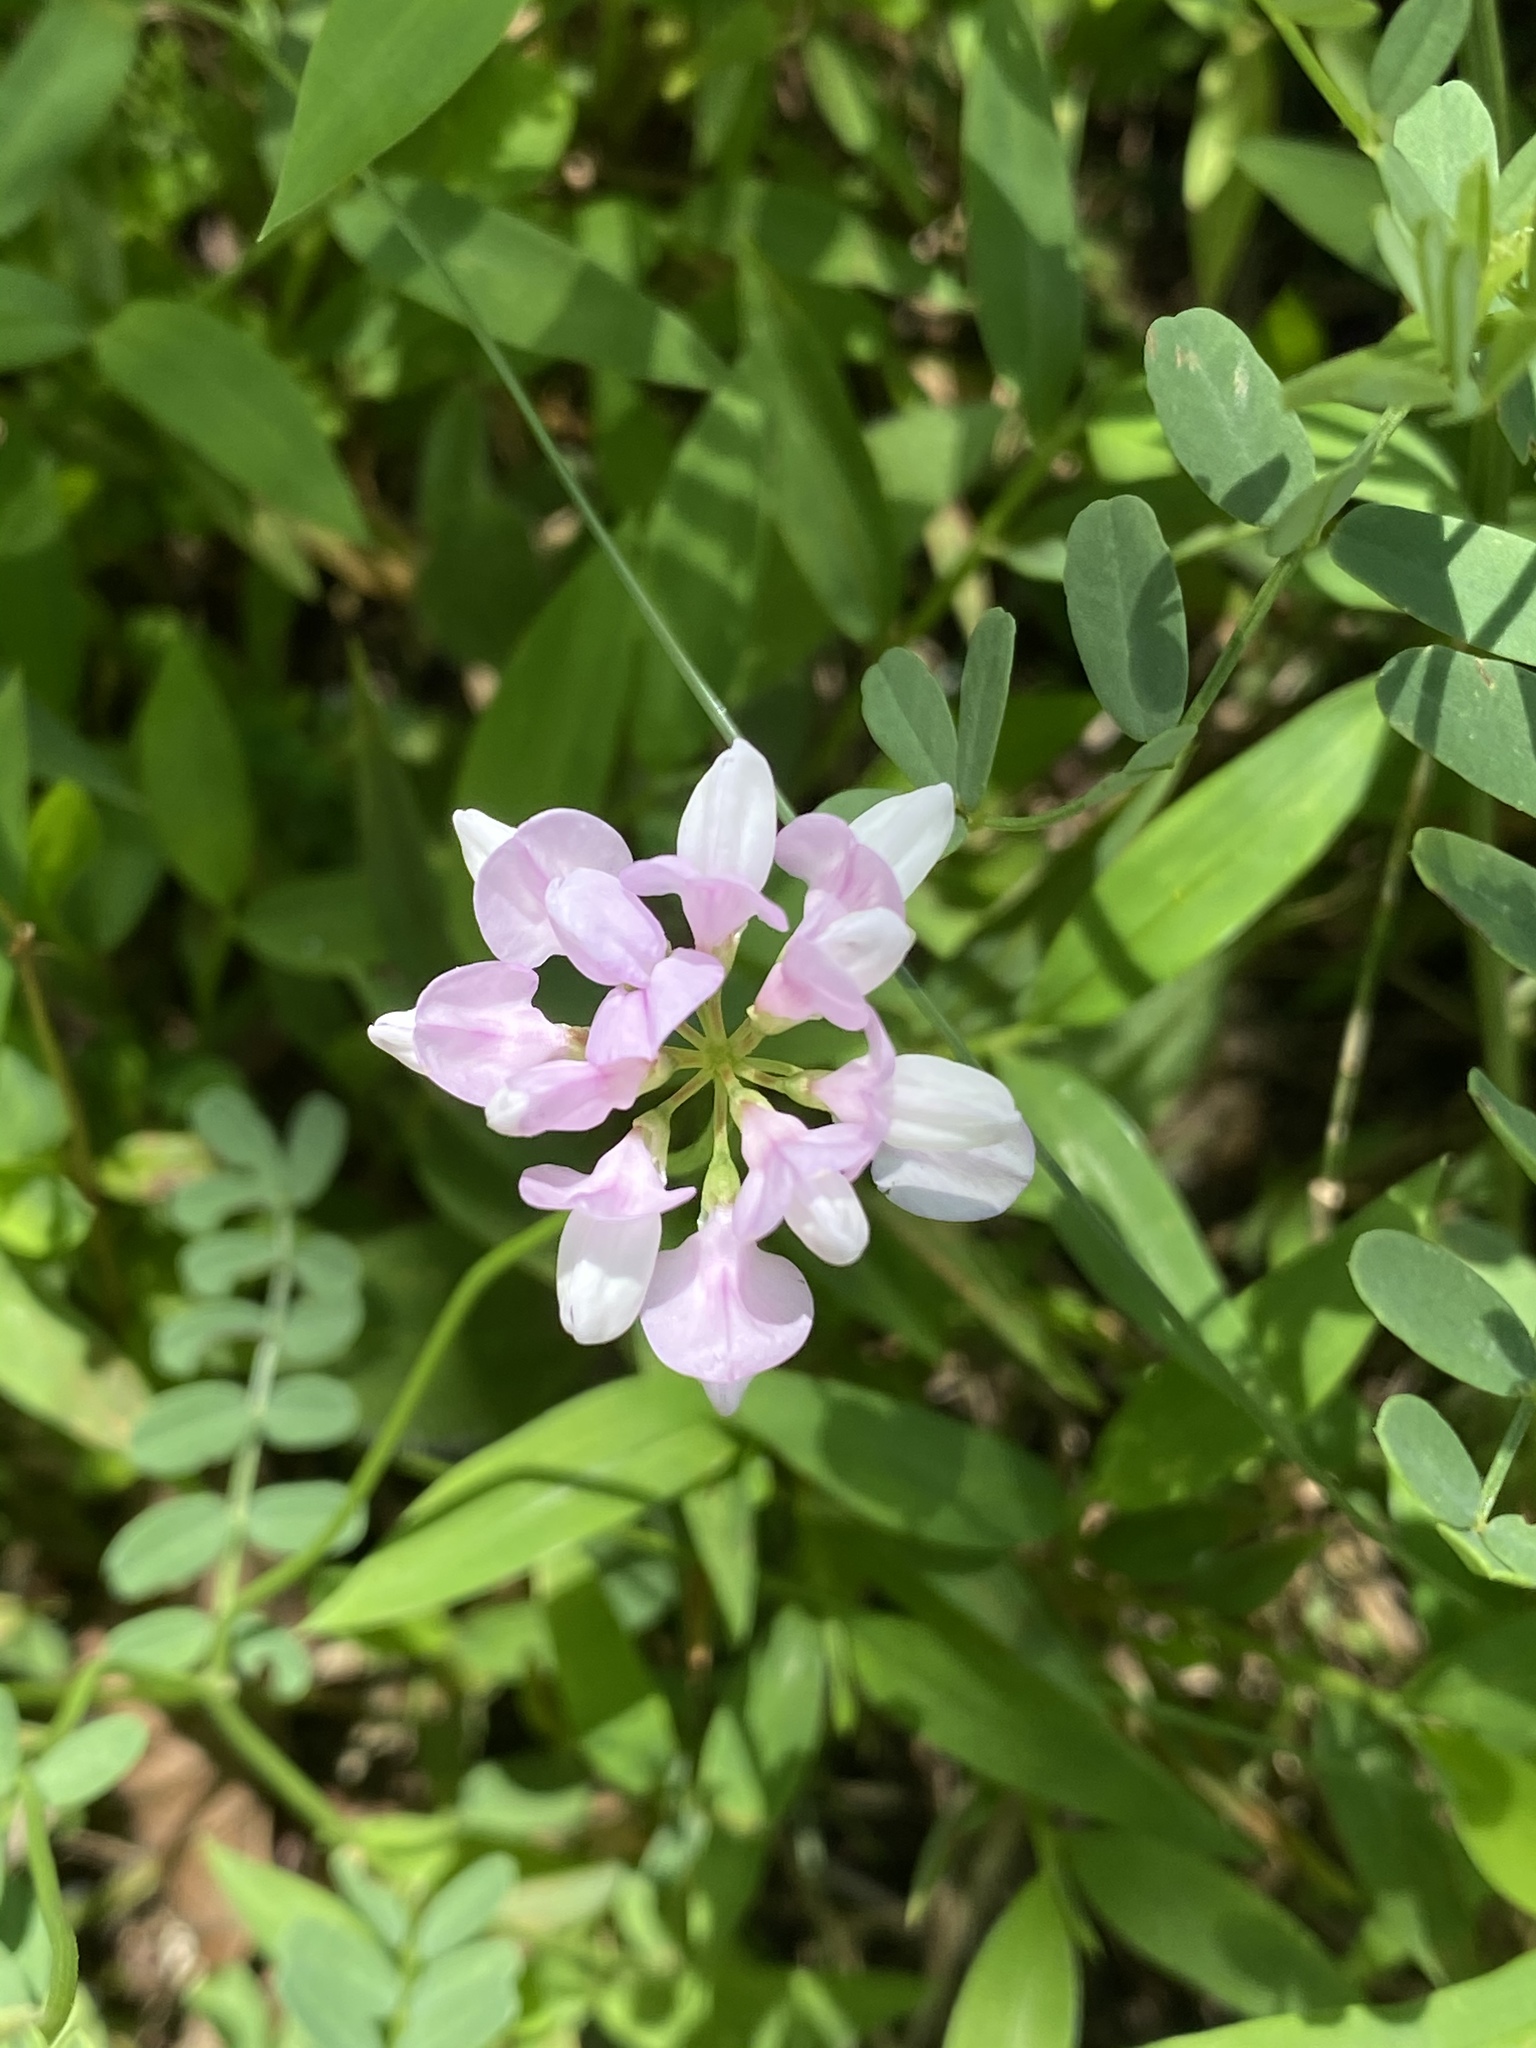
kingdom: Plantae
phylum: Tracheophyta
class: Magnoliopsida
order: Fabales
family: Fabaceae
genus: Coronilla
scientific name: Coronilla varia
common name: Crownvetch
